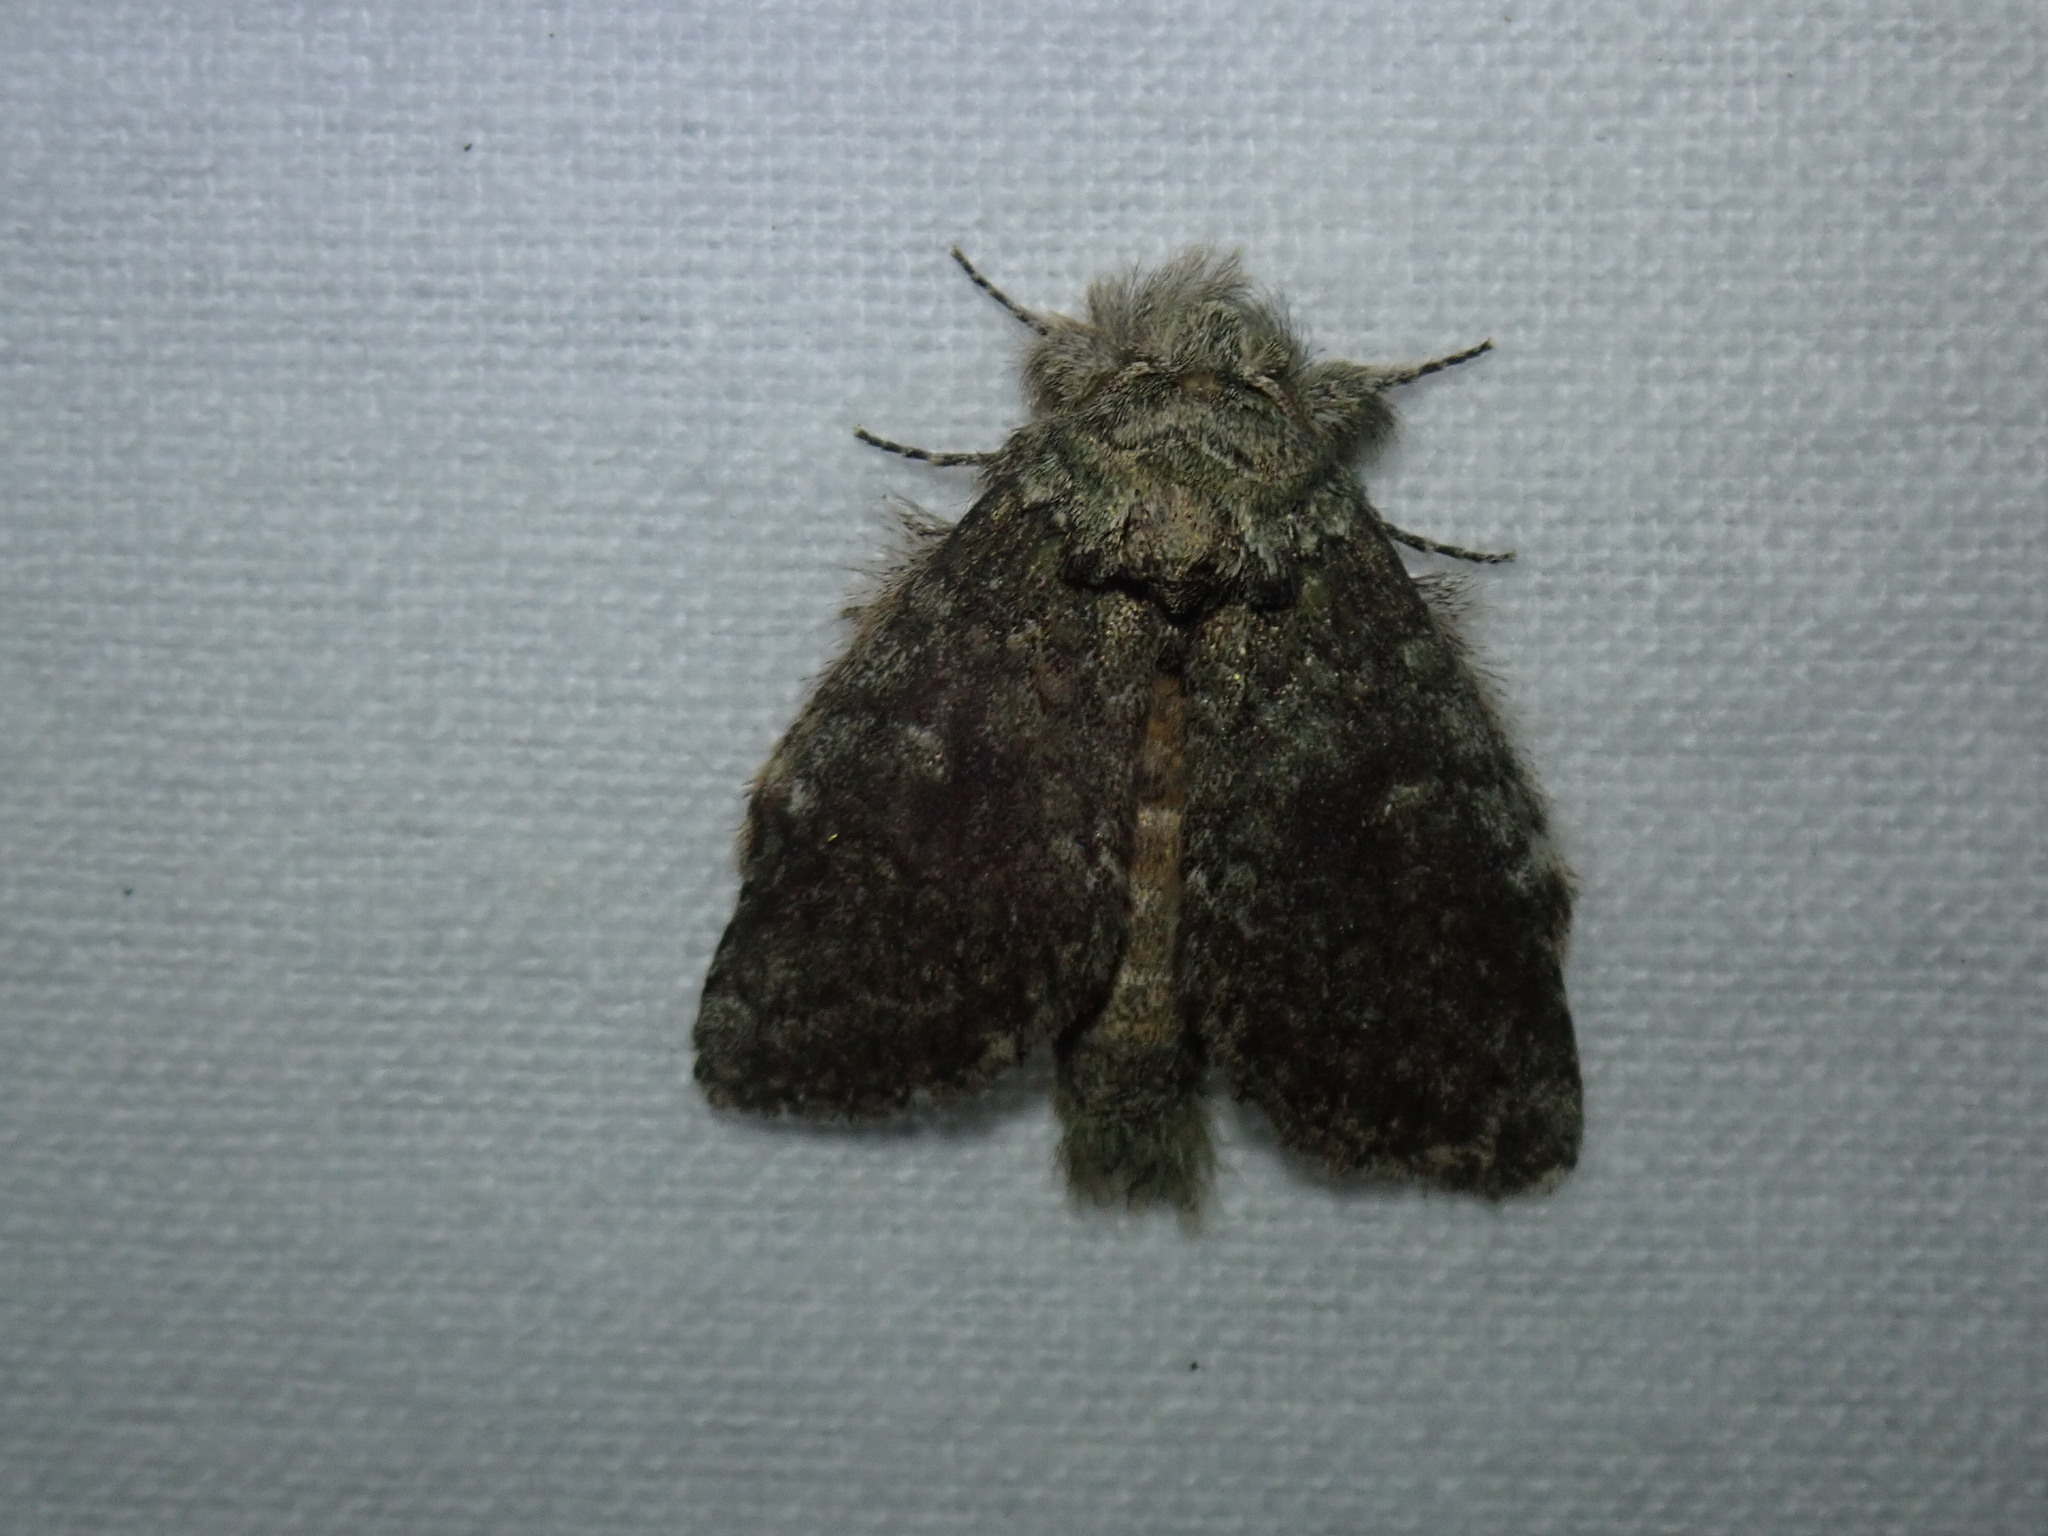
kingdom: Animalia
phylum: Arthropoda
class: Insecta
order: Lepidoptera
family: Notodontidae
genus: Disphragis
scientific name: Disphragis Cecrita guttivitta
